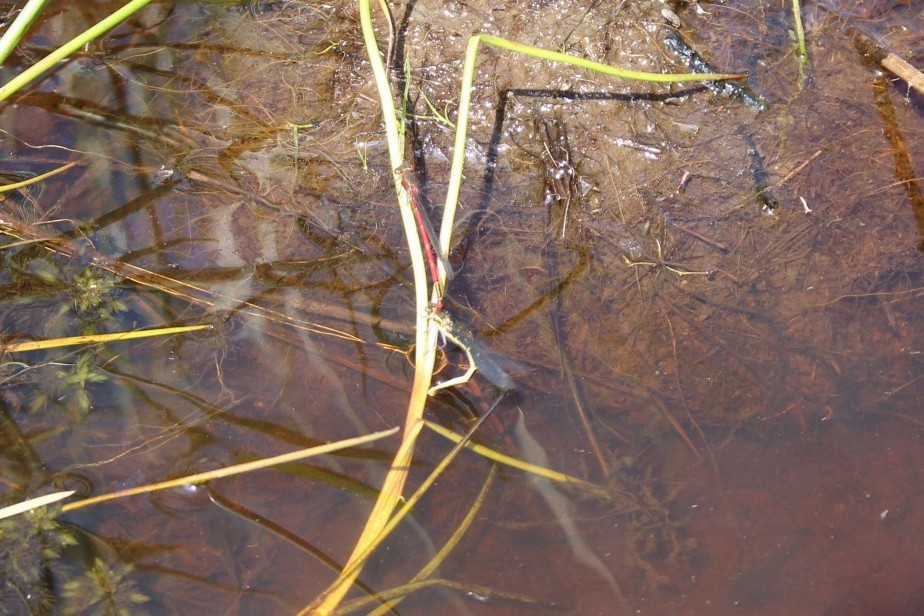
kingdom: Animalia
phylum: Arthropoda
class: Insecta
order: Odonata
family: Coenagrionidae
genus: Pyrrhosoma
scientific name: Pyrrhosoma nymphula
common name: Large red damsel
